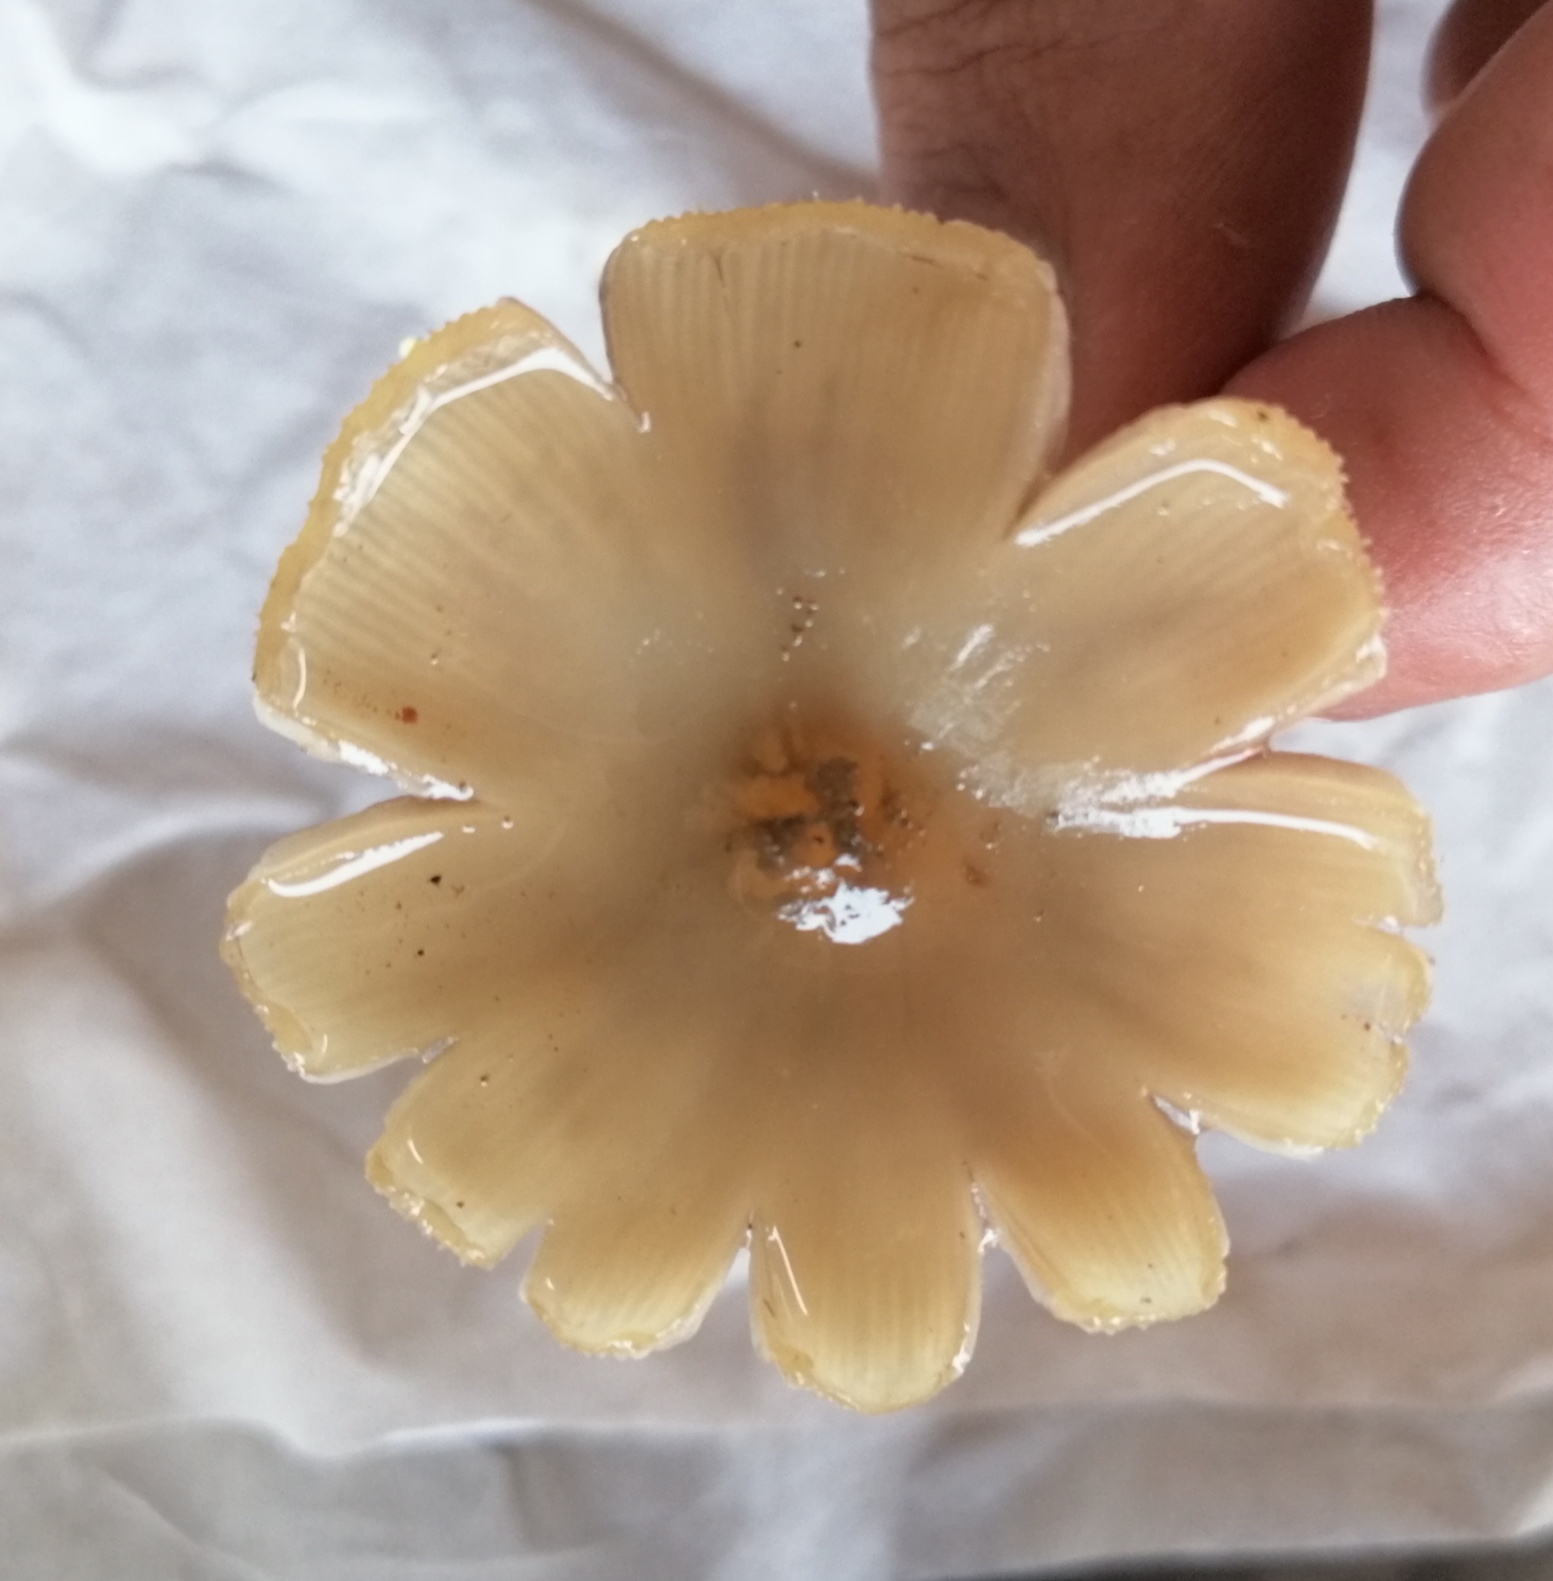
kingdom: Fungi
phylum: Basidiomycota
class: Agaricomycetes
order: Agaricales
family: Hymenogastraceae
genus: Psilocybe
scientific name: Psilocybe caerulescens
